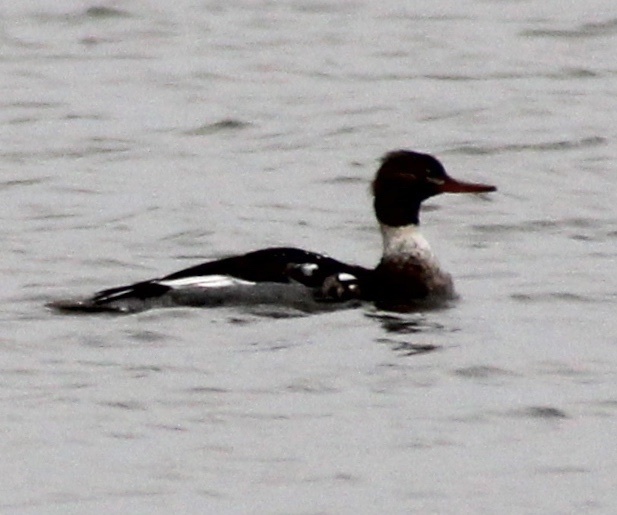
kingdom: Animalia
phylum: Chordata
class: Aves
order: Anseriformes
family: Anatidae
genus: Mergus
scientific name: Mergus serrator
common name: Red-breasted merganser
